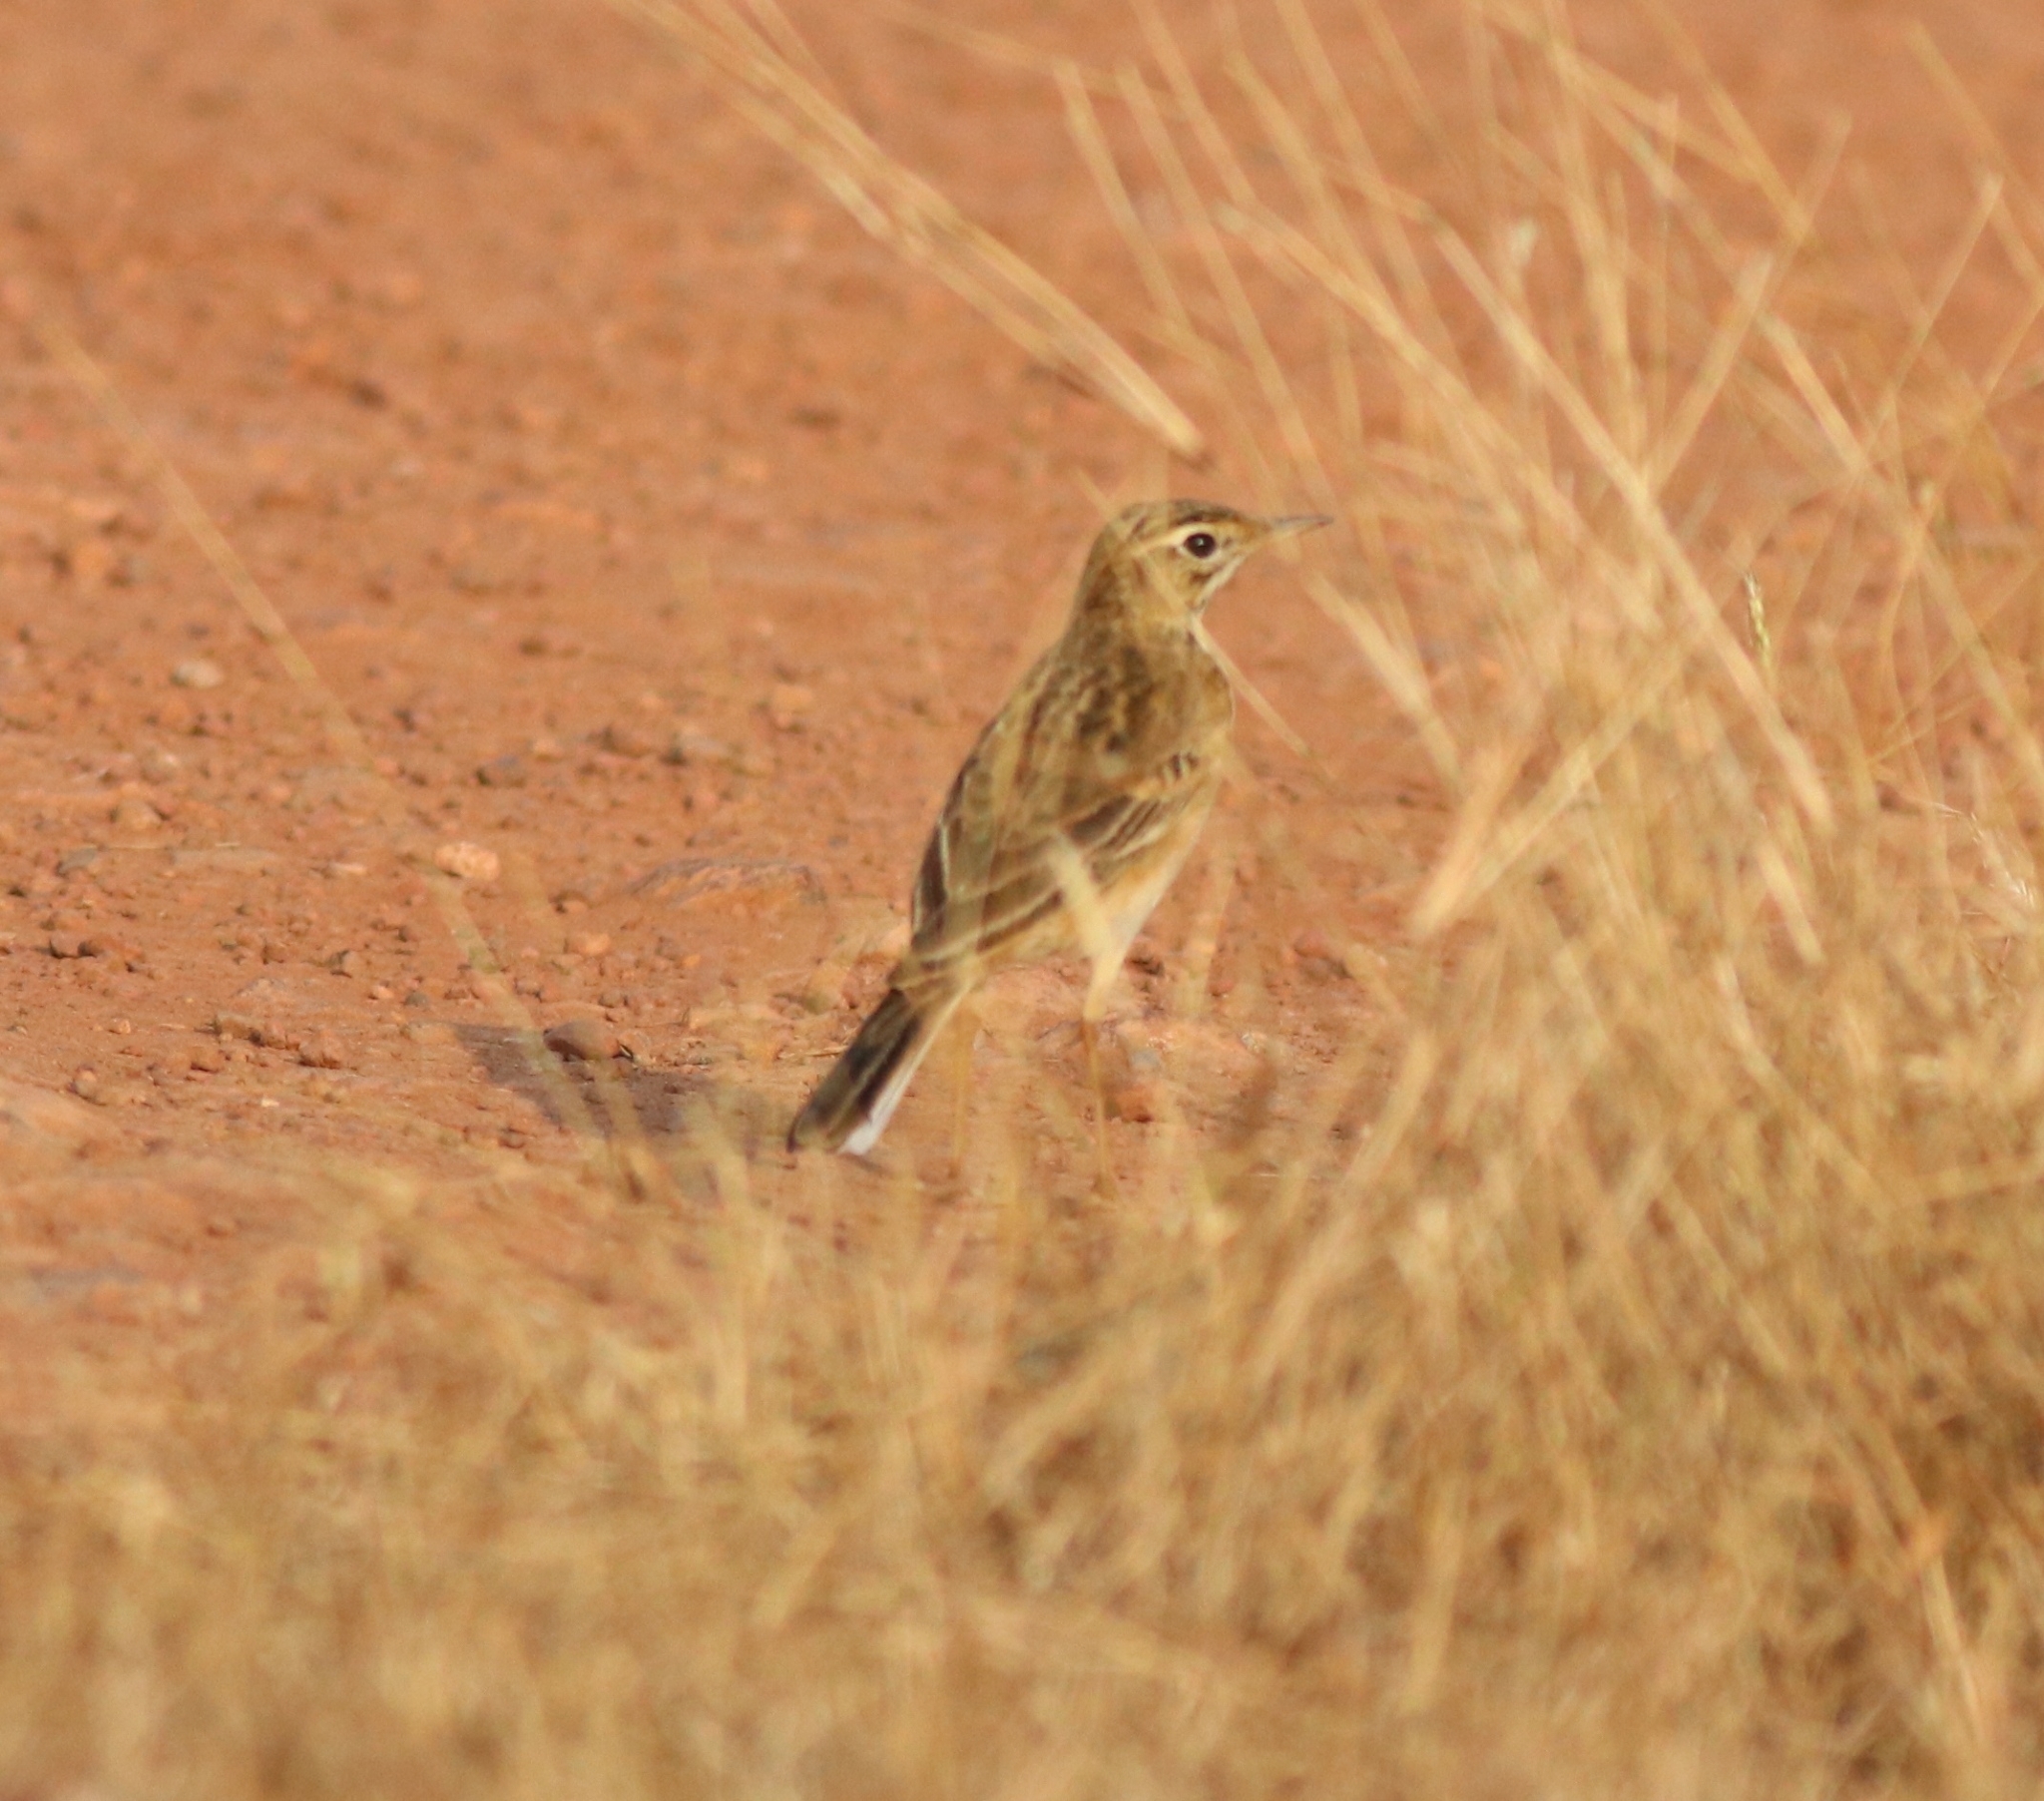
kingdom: Animalia
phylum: Chordata
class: Aves
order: Passeriformes
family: Motacillidae
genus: Anthus
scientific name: Anthus rufulus
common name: Paddyfield pipit
